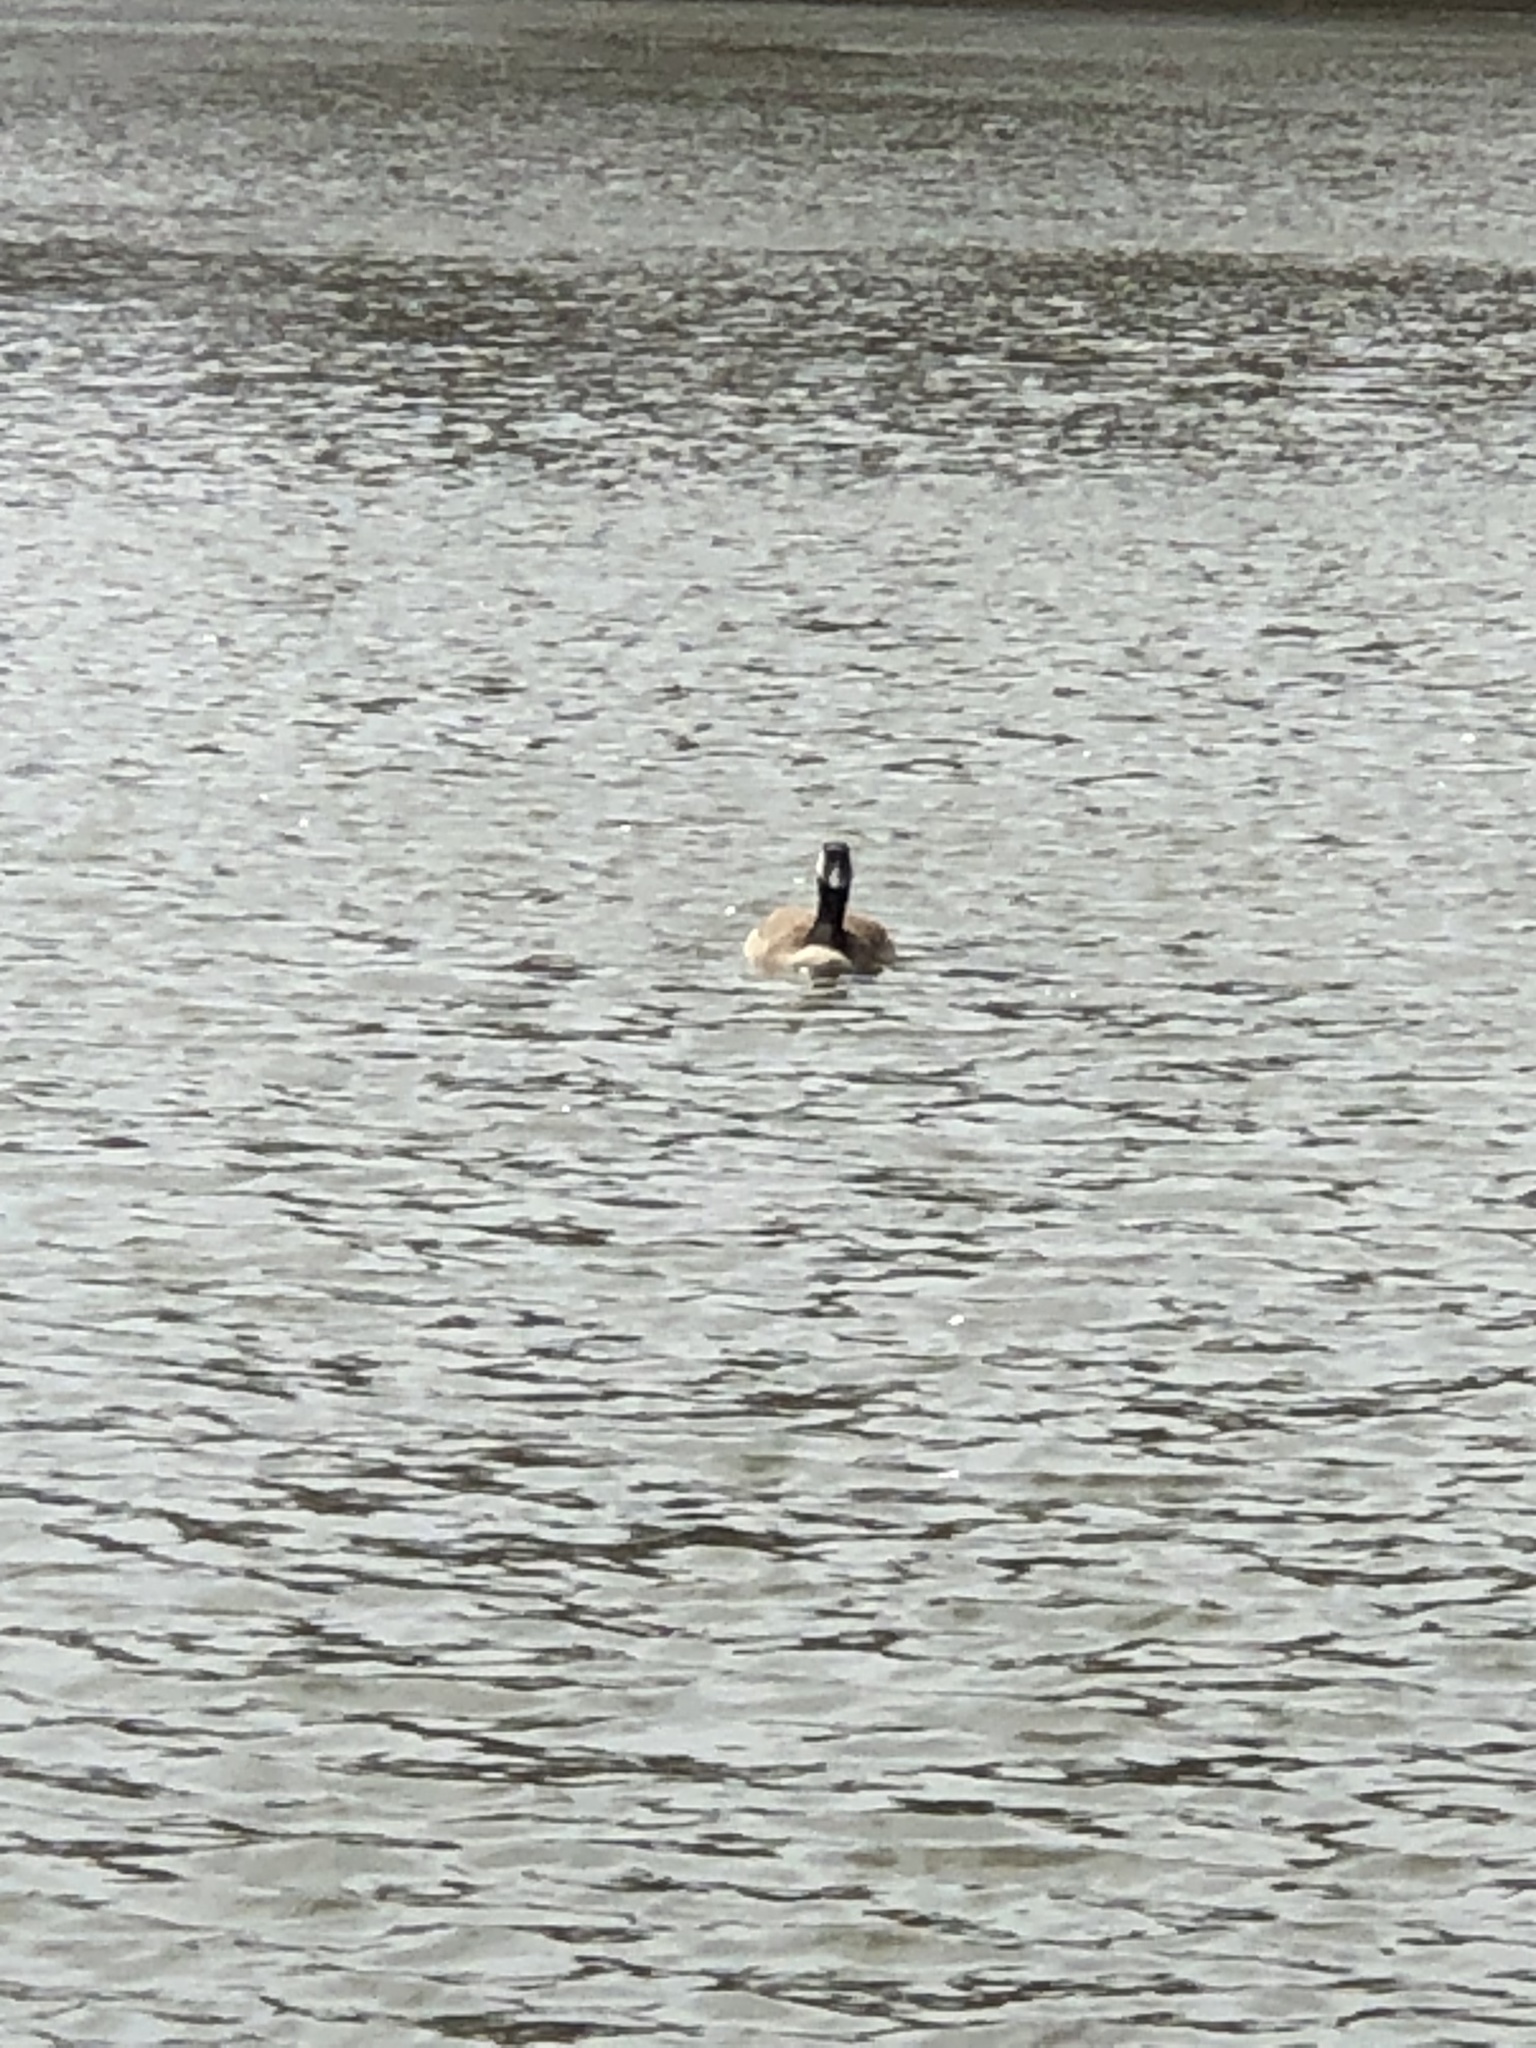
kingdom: Animalia
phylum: Chordata
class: Aves
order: Anseriformes
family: Anatidae
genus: Branta
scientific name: Branta canadensis
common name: Canada goose
